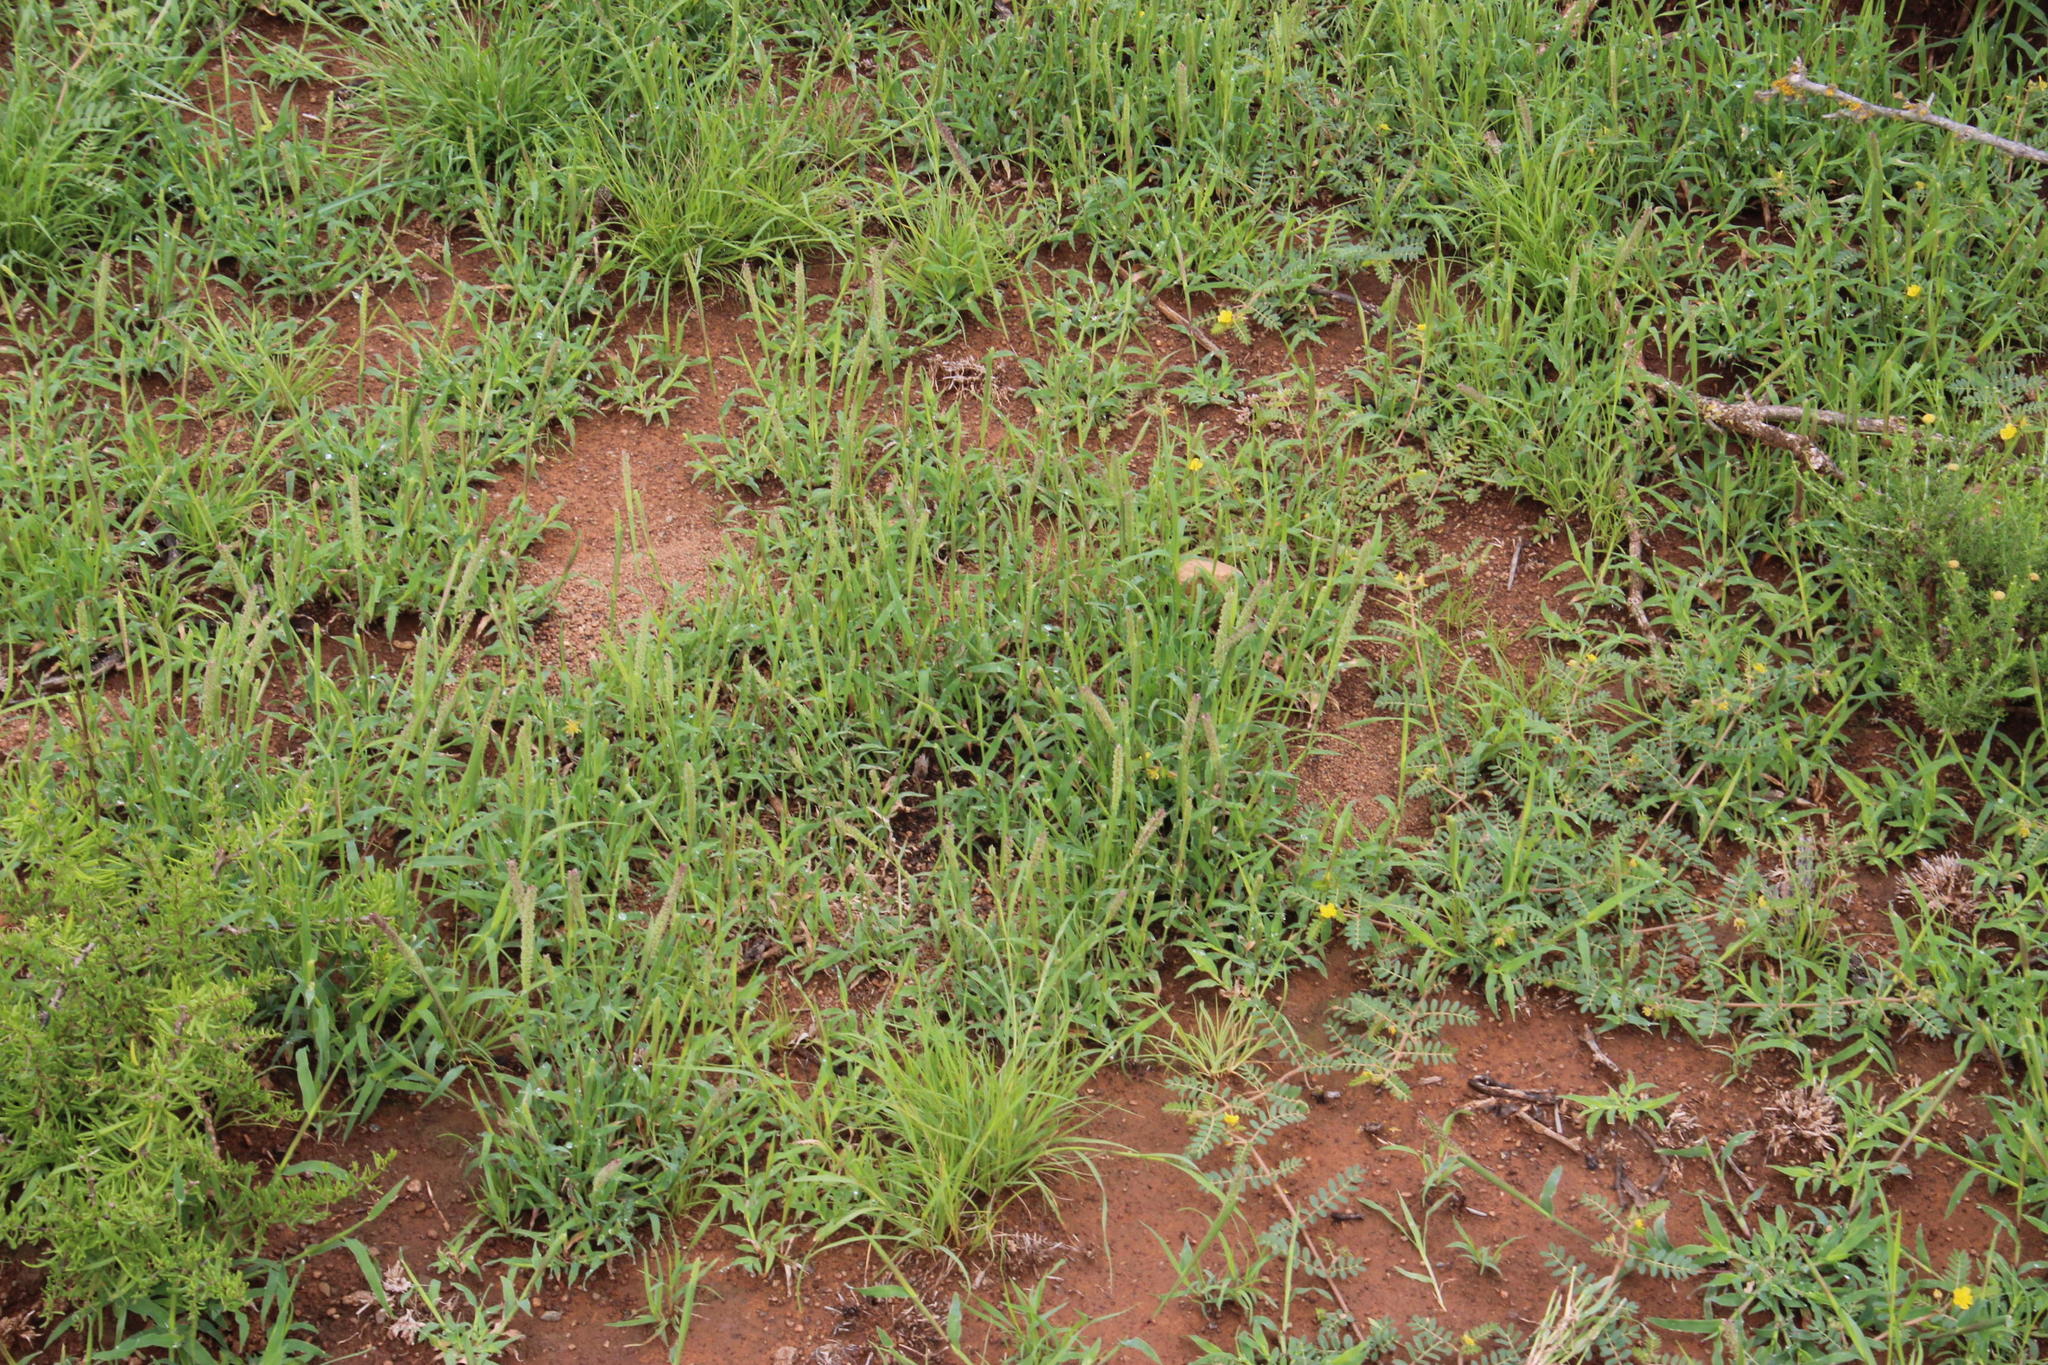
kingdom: Plantae
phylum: Tracheophyta
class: Liliopsida
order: Poales
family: Poaceae
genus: Tragus
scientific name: Tragus berteronianus
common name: African bur-grass
